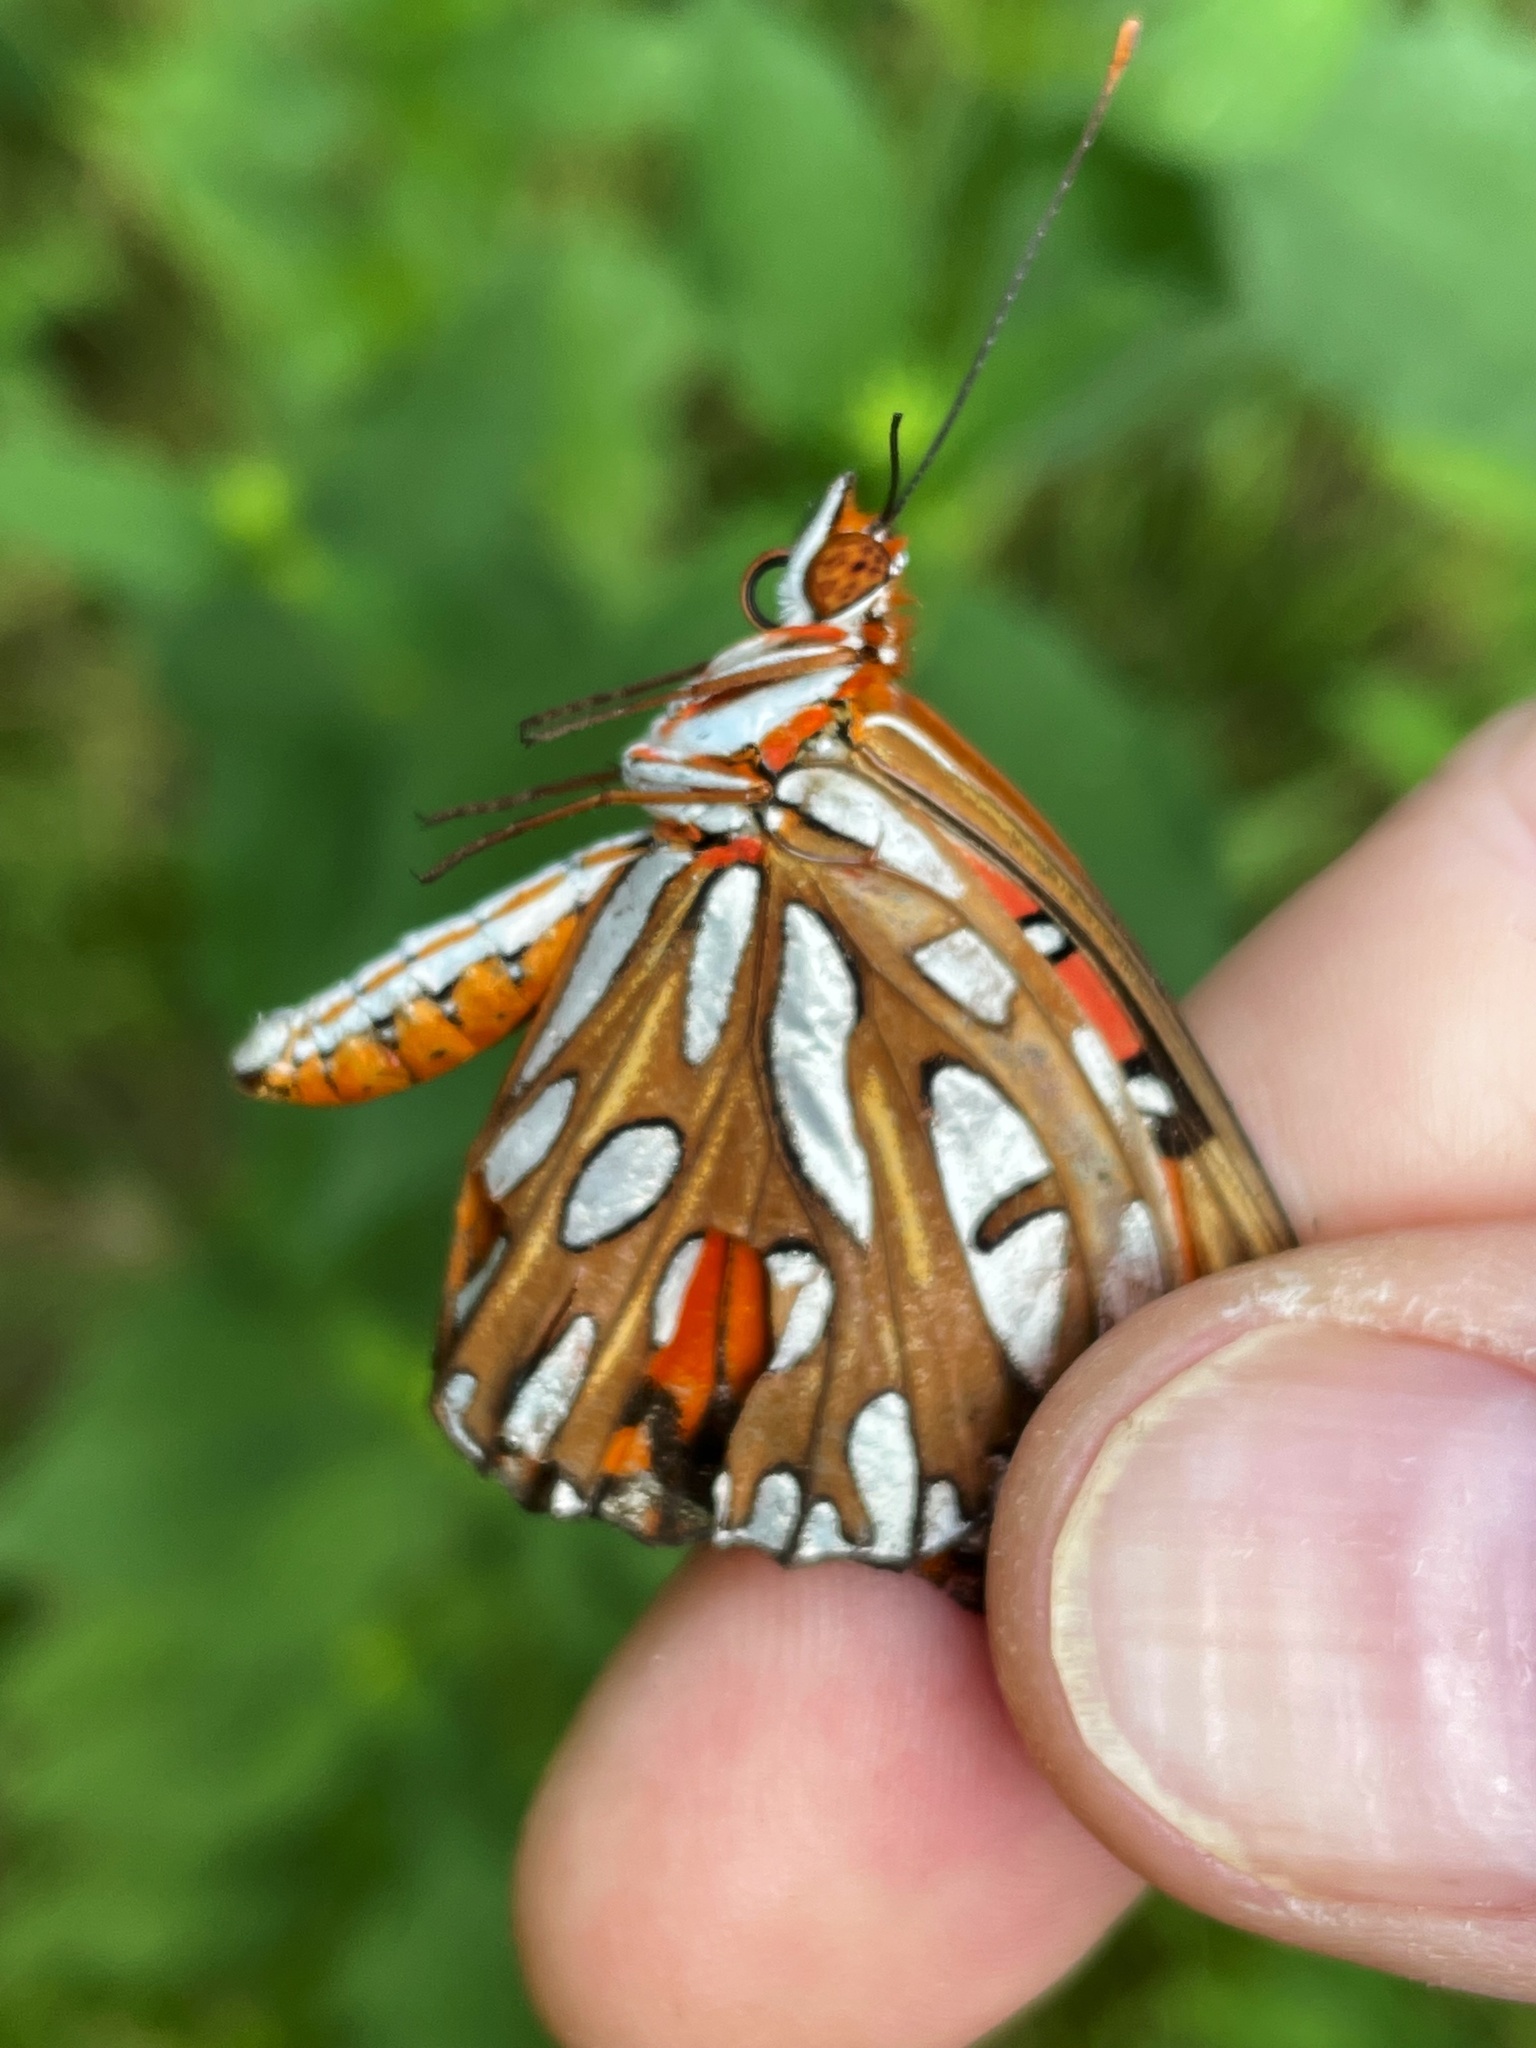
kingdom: Animalia
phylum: Arthropoda
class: Insecta
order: Lepidoptera
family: Nymphalidae
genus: Dione
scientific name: Dione vanillae
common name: Gulf fritillary
